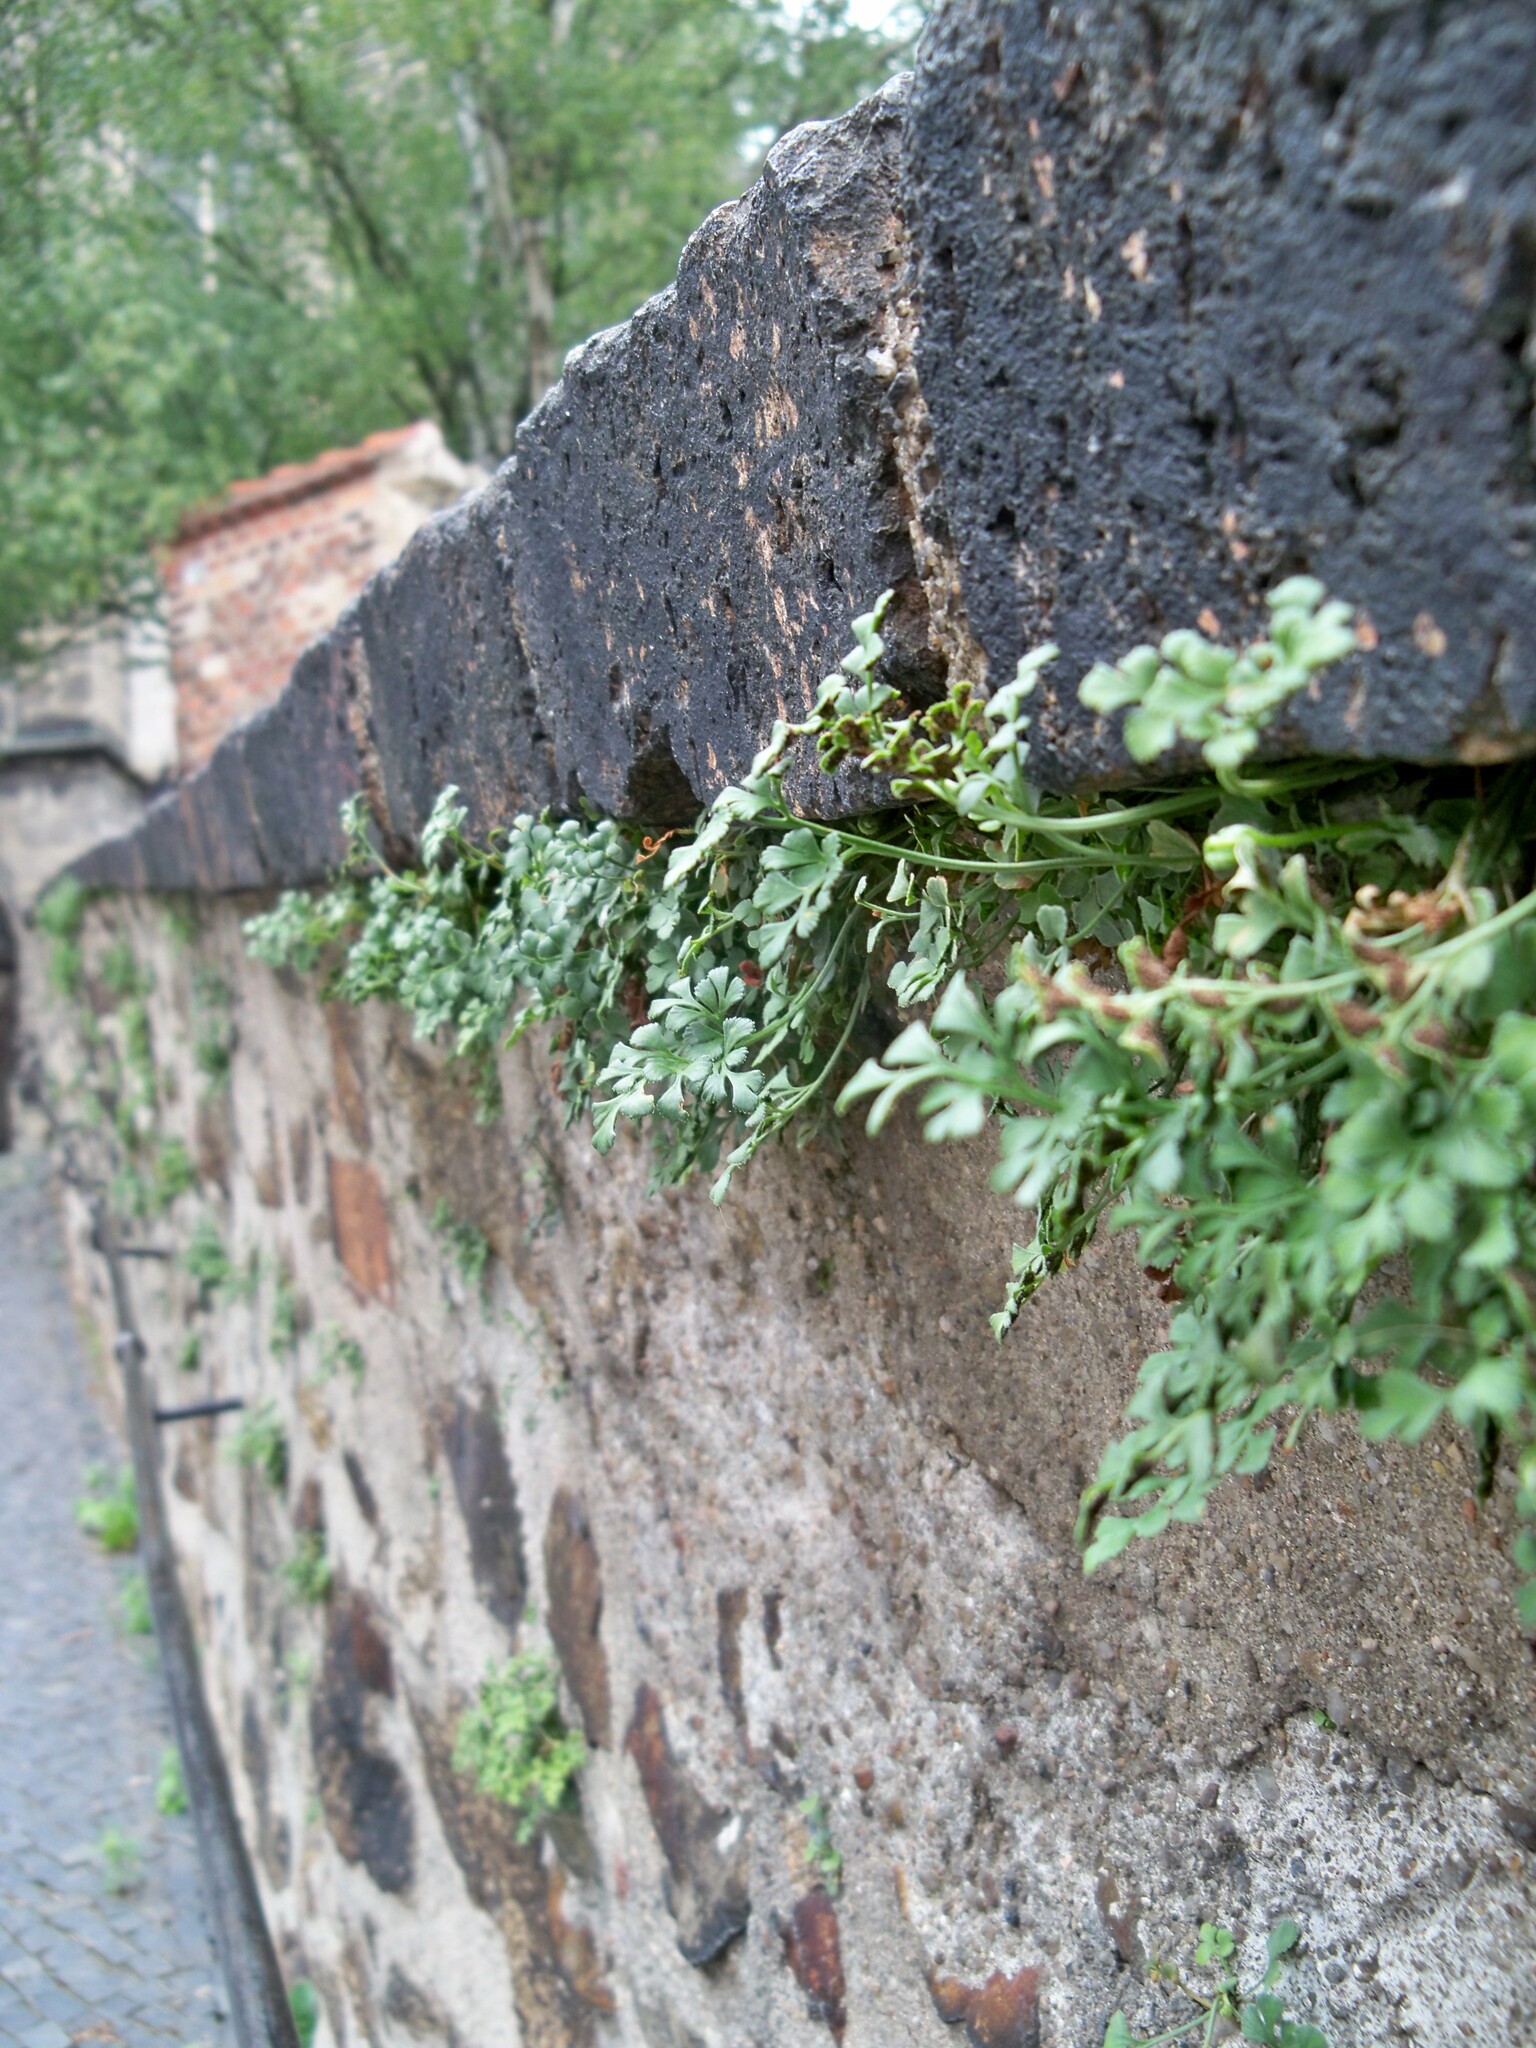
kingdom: Plantae
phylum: Tracheophyta
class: Polypodiopsida
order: Polypodiales
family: Aspleniaceae
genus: Asplenium
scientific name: Asplenium ruta-muraria
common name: Wall-rue
